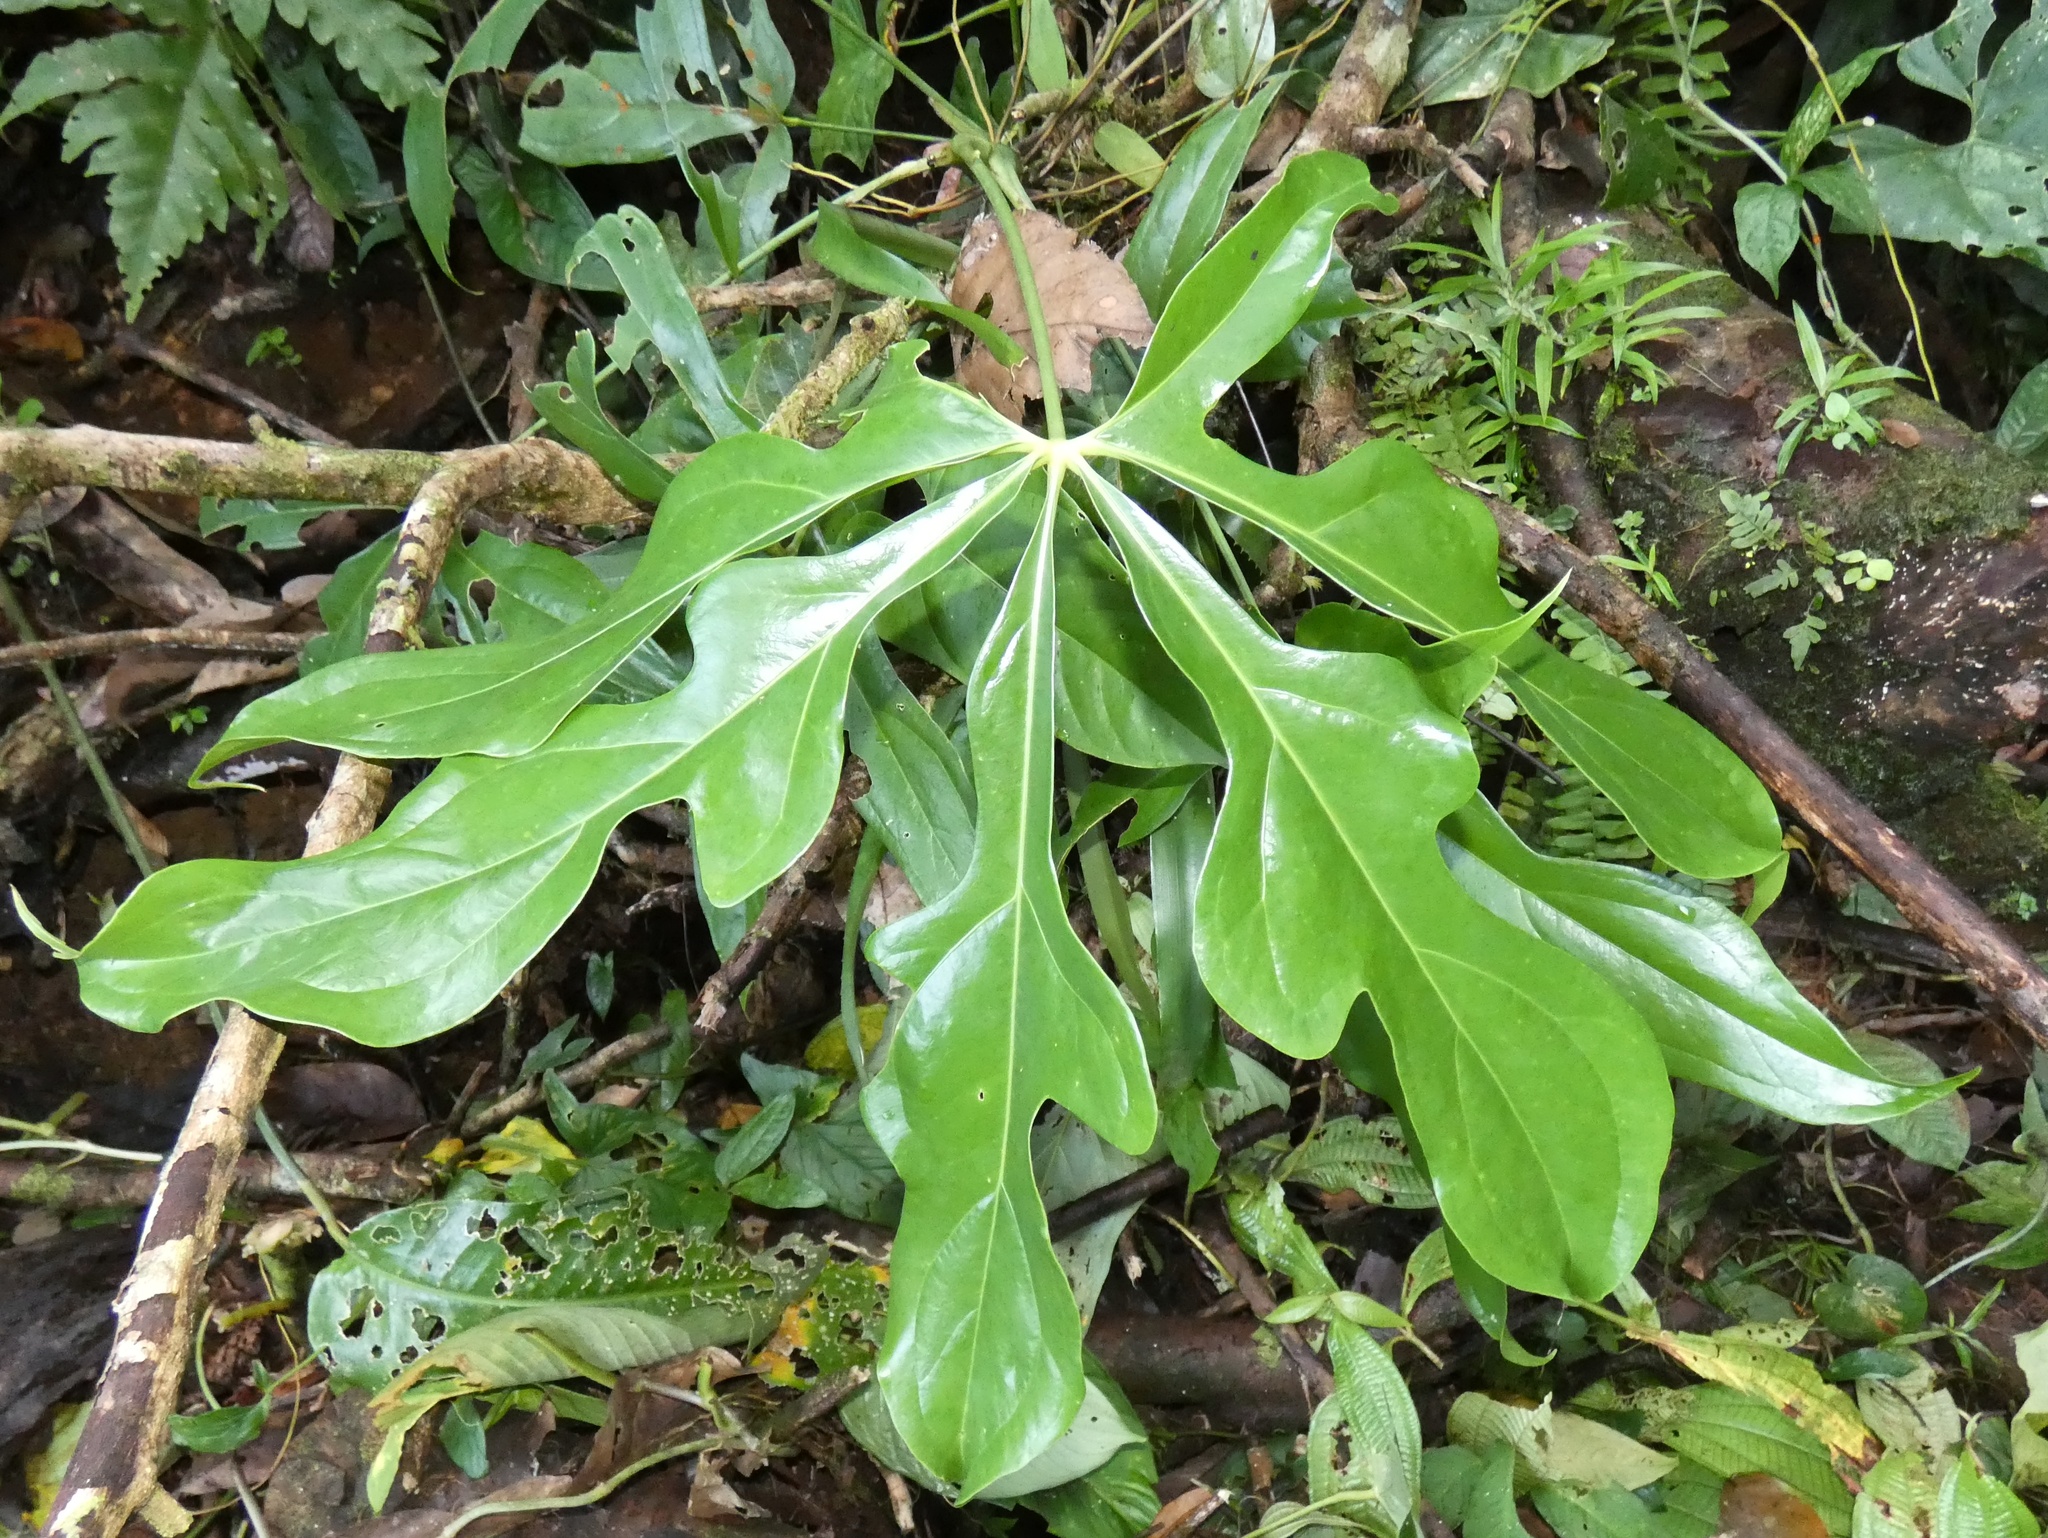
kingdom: Plantae
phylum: Tracheophyta
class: Liliopsida
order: Alismatales
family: Araceae
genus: Anthurium
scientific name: Anthurium clavigerum
